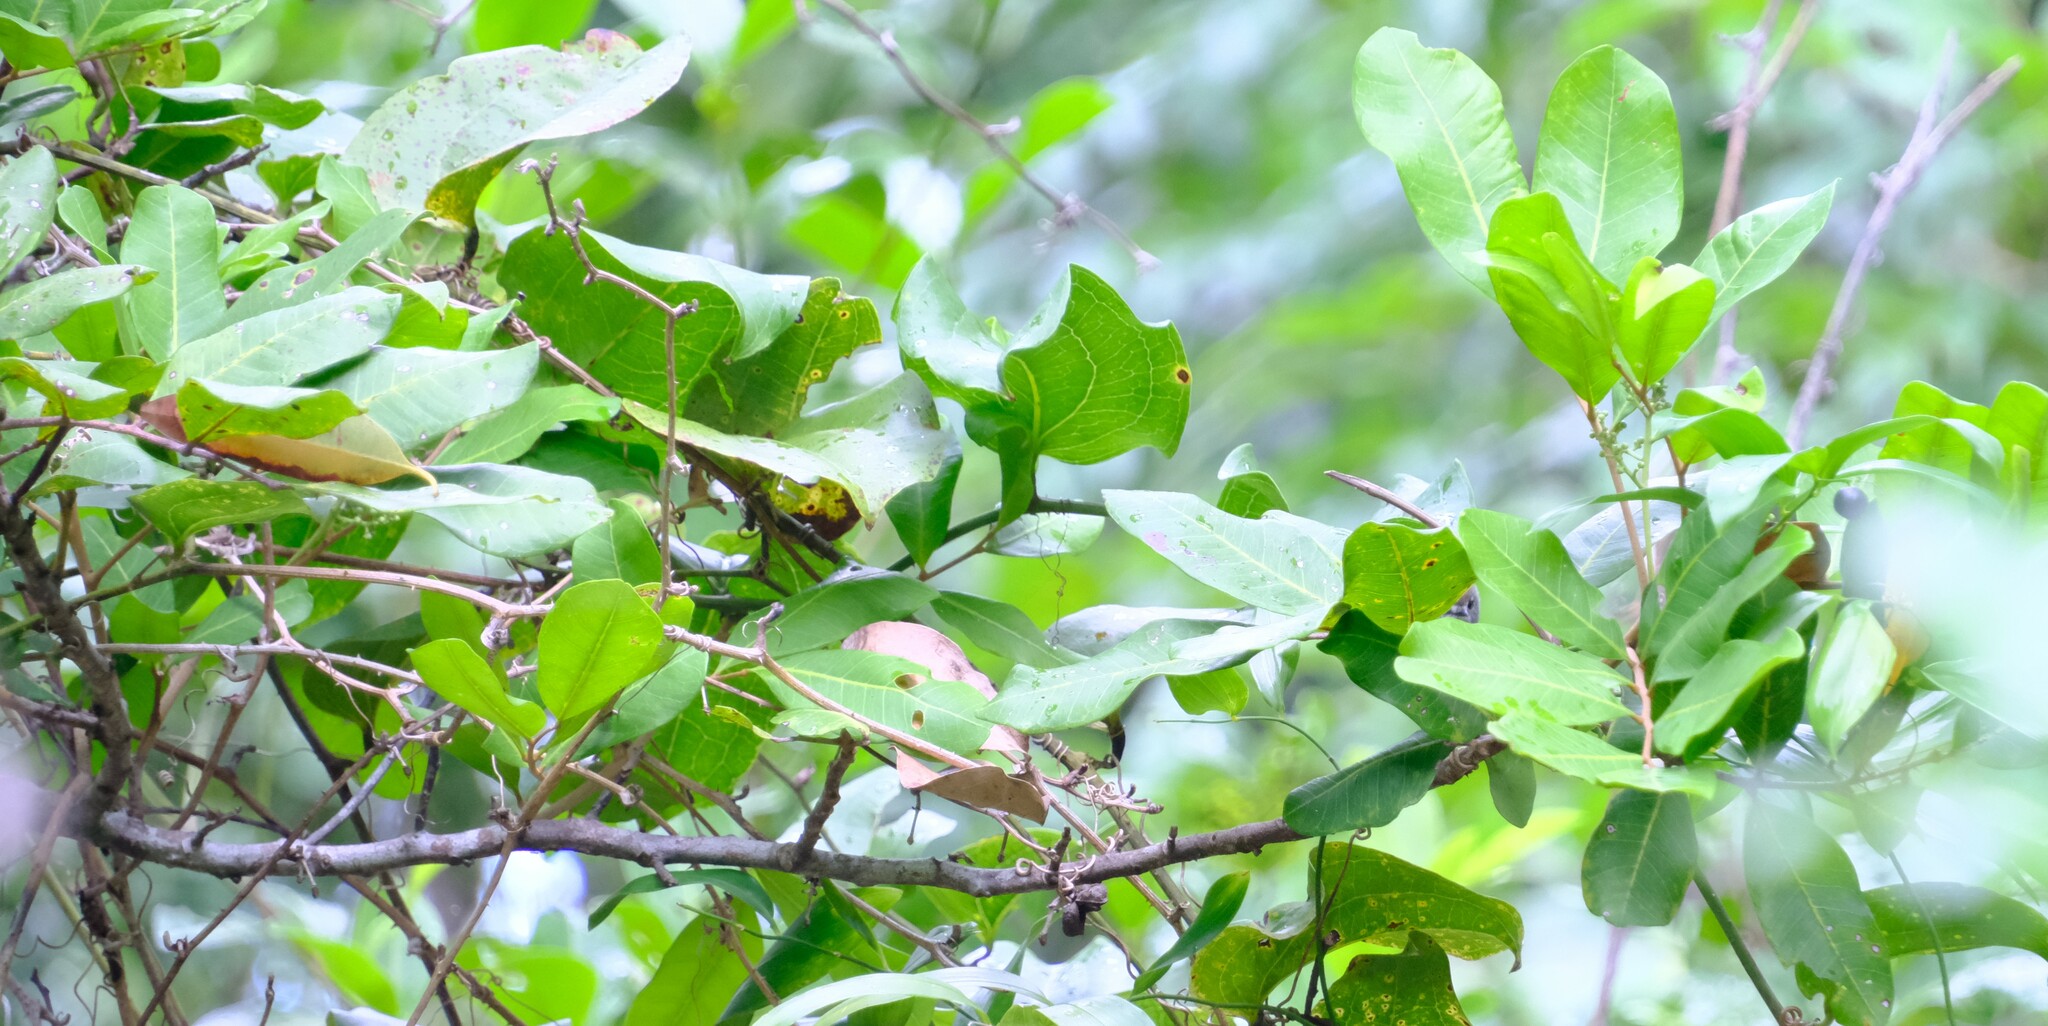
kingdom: Plantae
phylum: Tracheophyta
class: Magnoliopsida
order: Sapindales
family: Sapindaceae
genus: Cupaniopsis
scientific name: Cupaniopsis anacardioides
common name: Carrotwood
